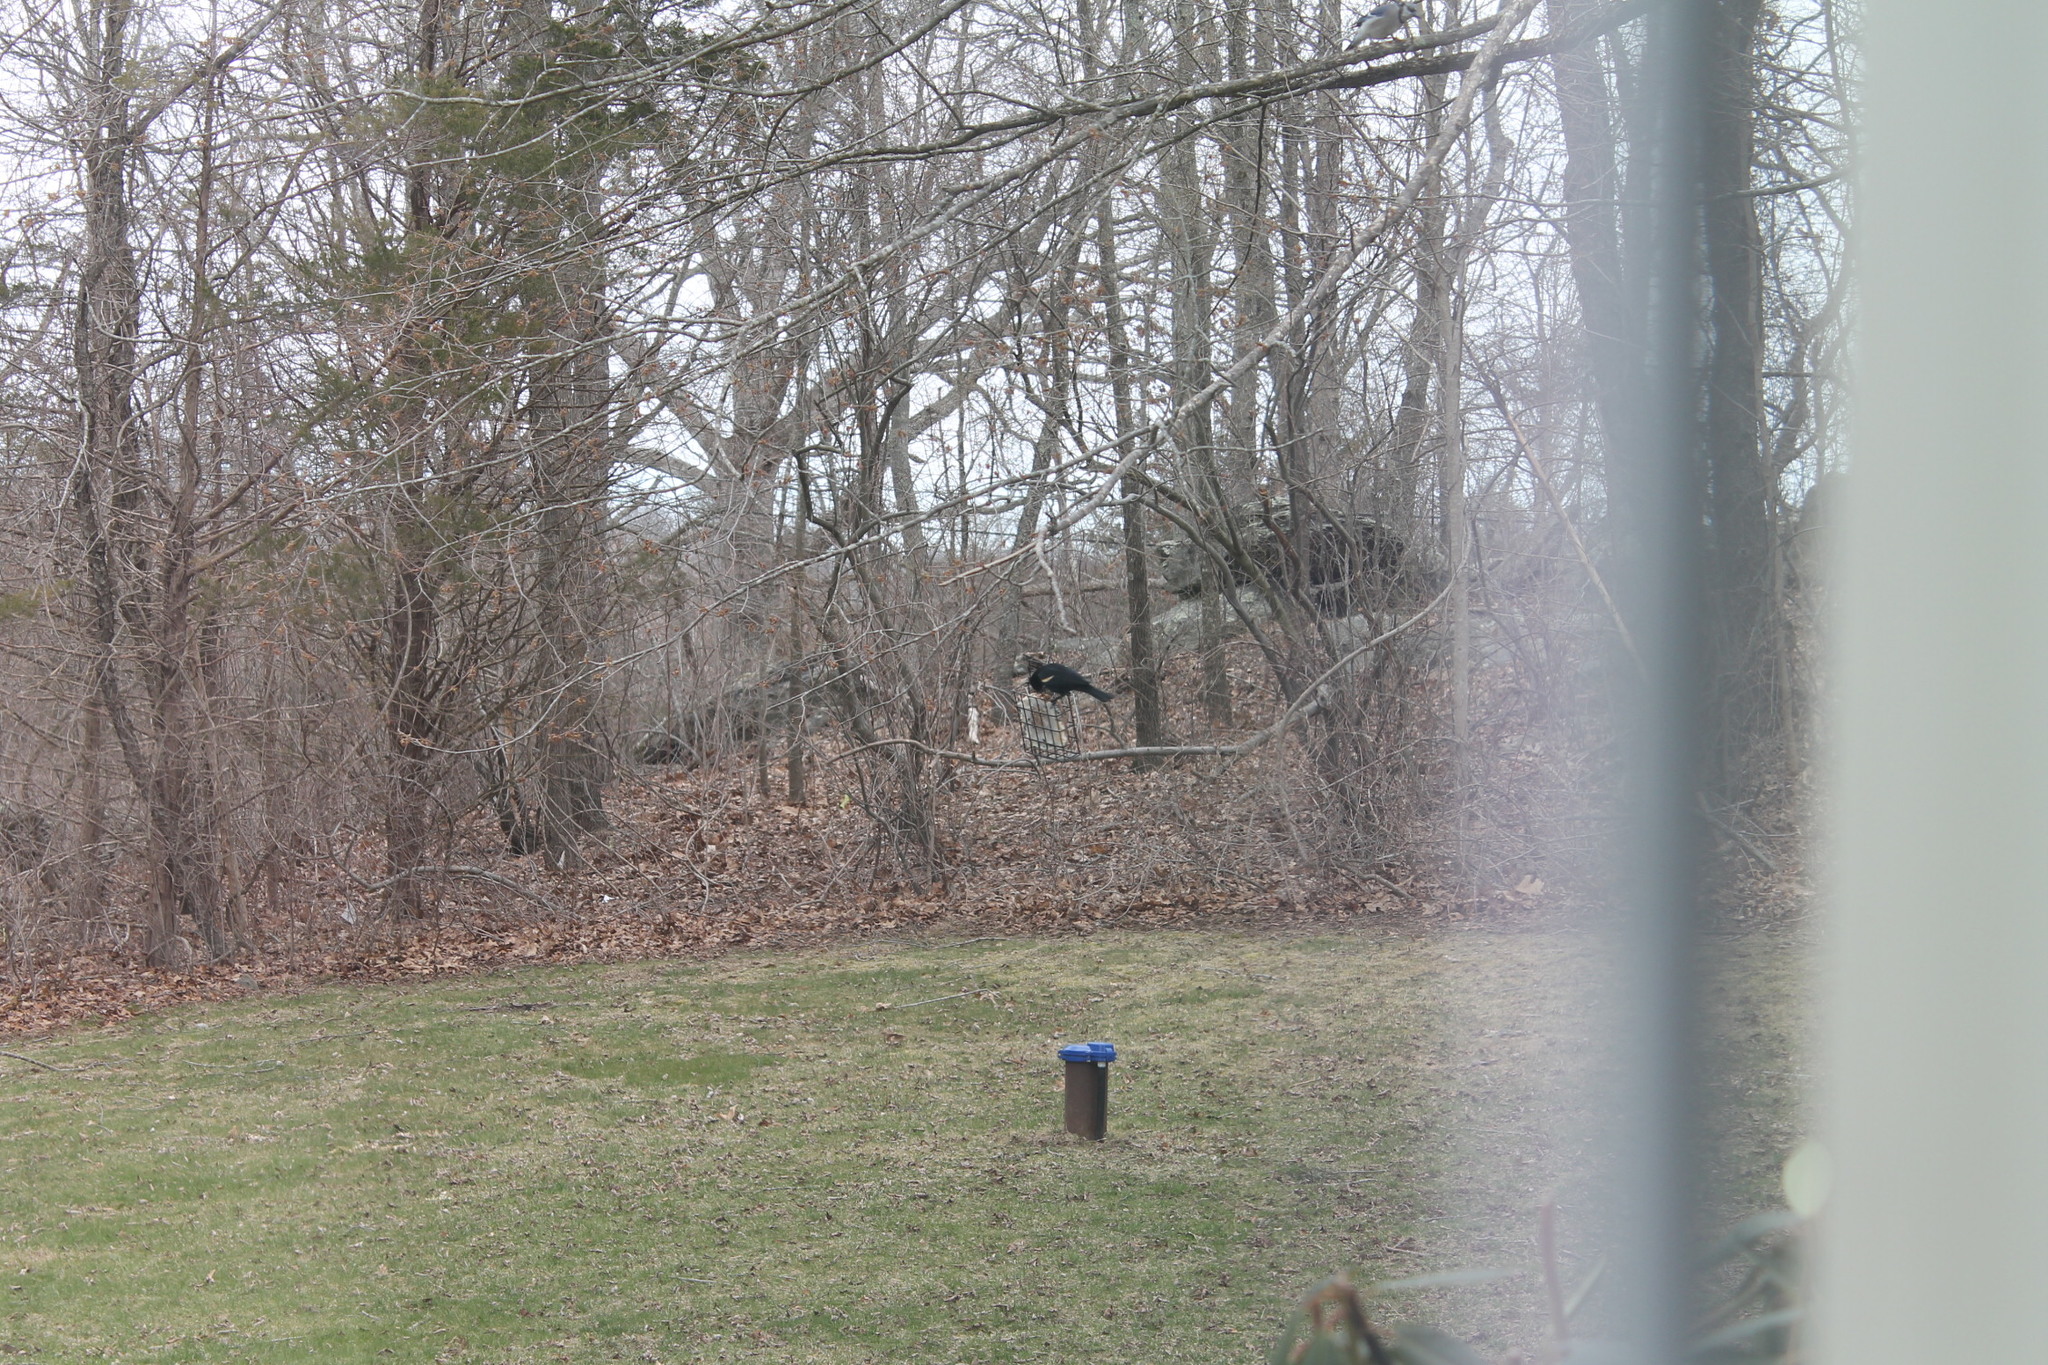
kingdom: Animalia
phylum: Chordata
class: Aves
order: Passeriformes
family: Icteridae
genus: Agelaius
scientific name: Agelaius phoeniceus
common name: Red-winged blackbird
